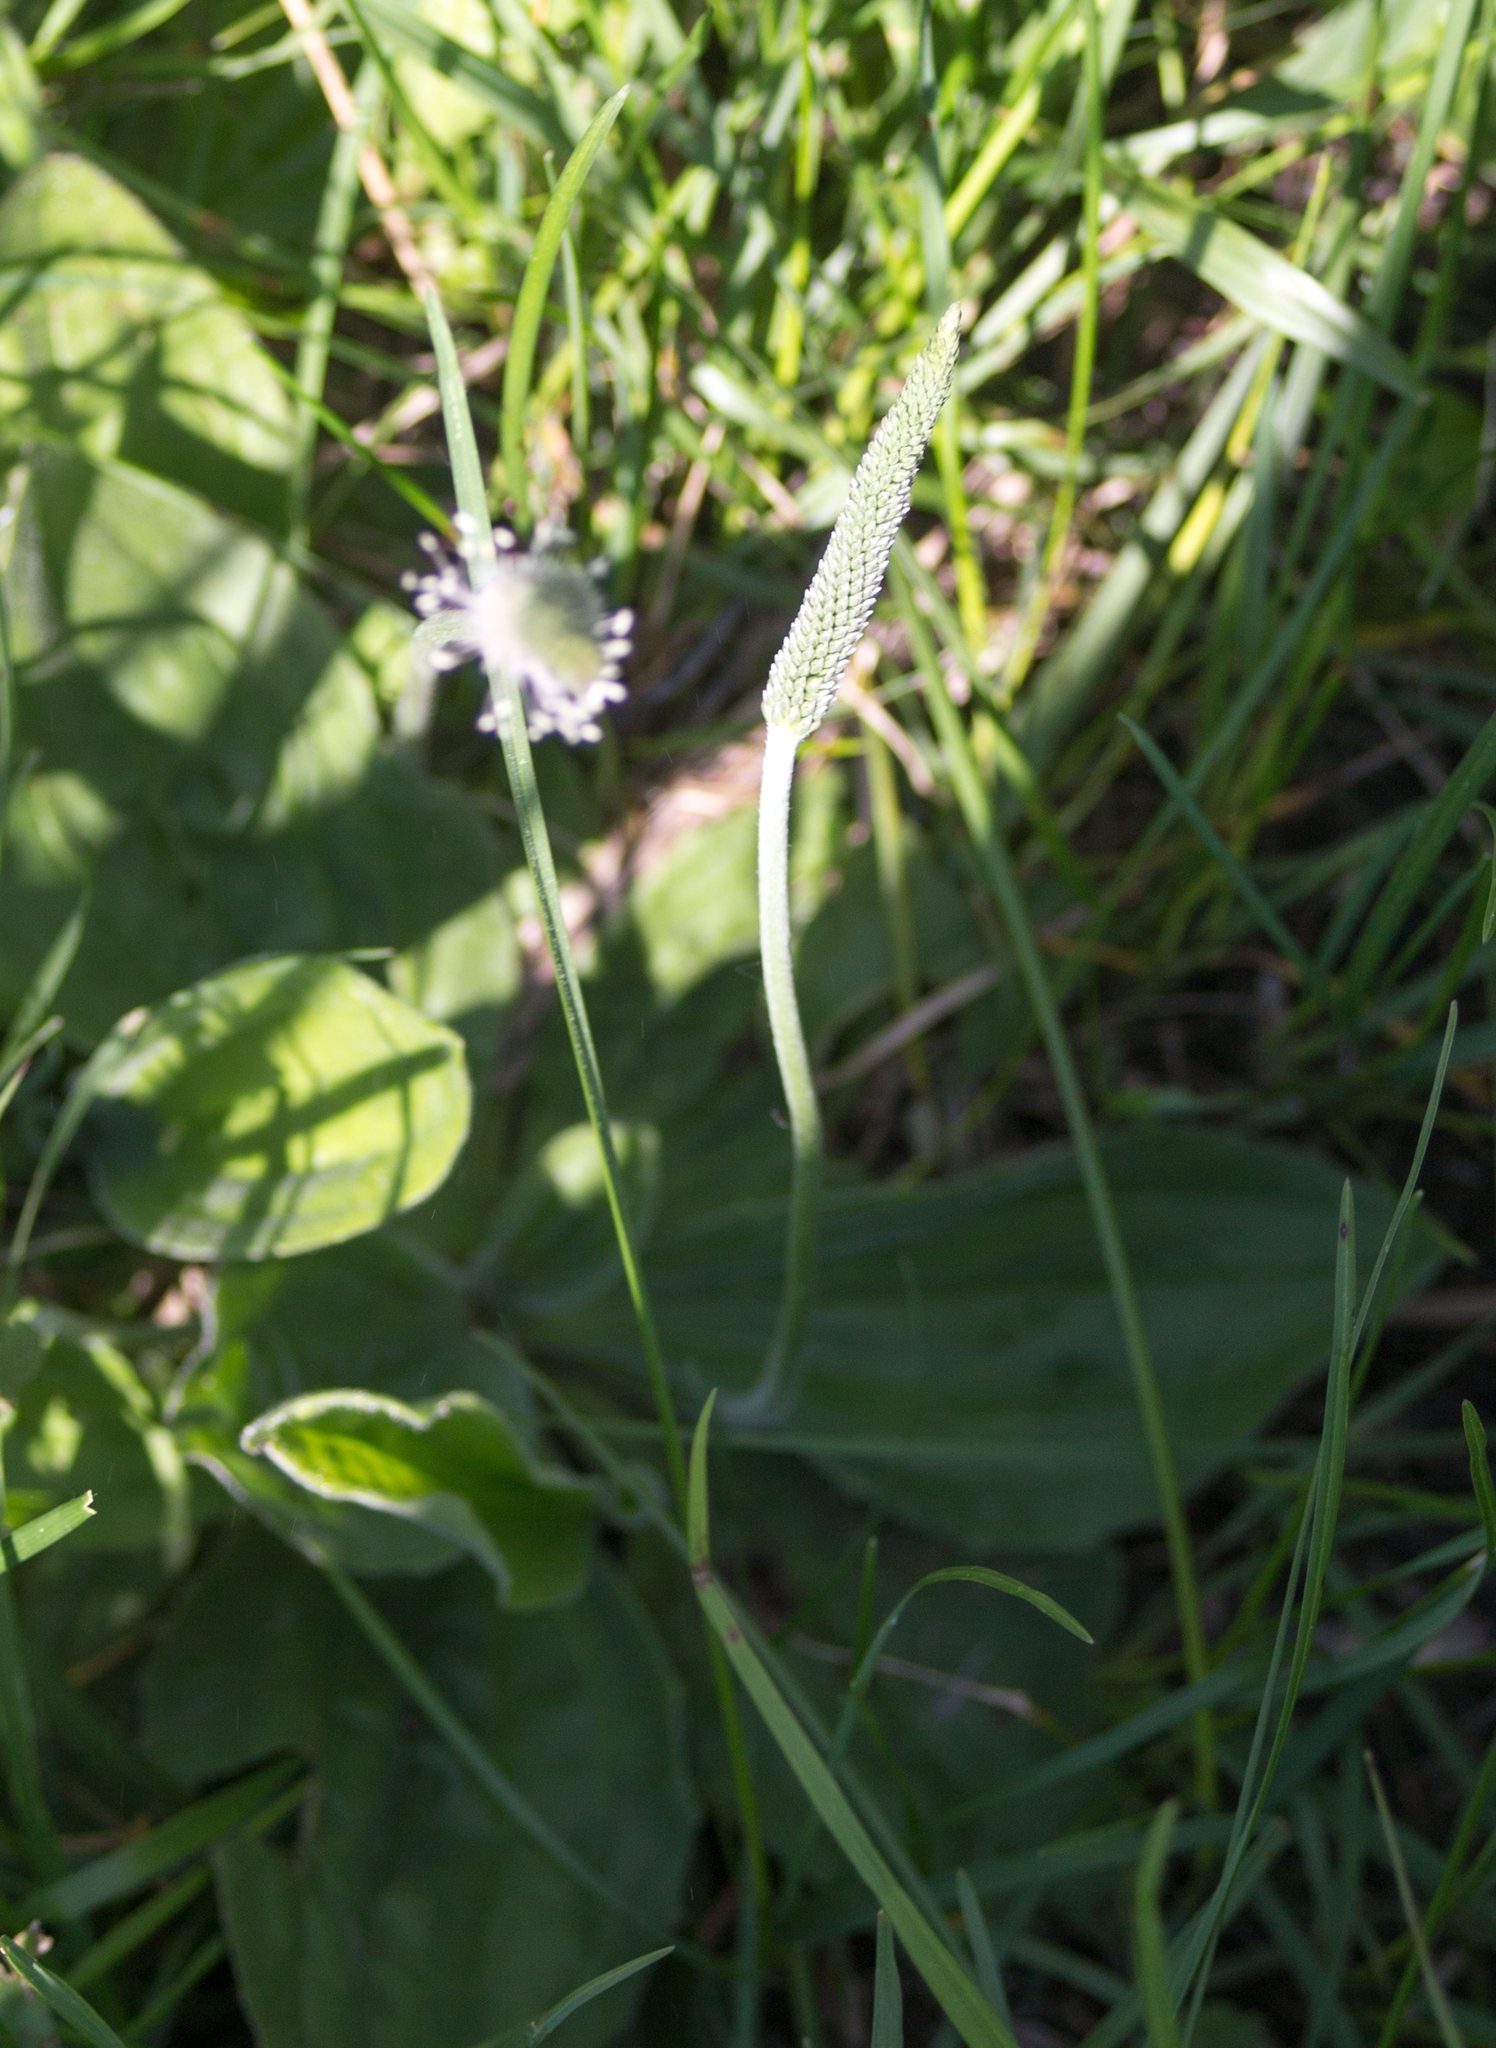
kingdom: Plantae
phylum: Tracheophyta
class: Magnoliopsida
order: Lamiales
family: Plantaginaceae
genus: Plantago
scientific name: Plantago media
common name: Hoary plantain
